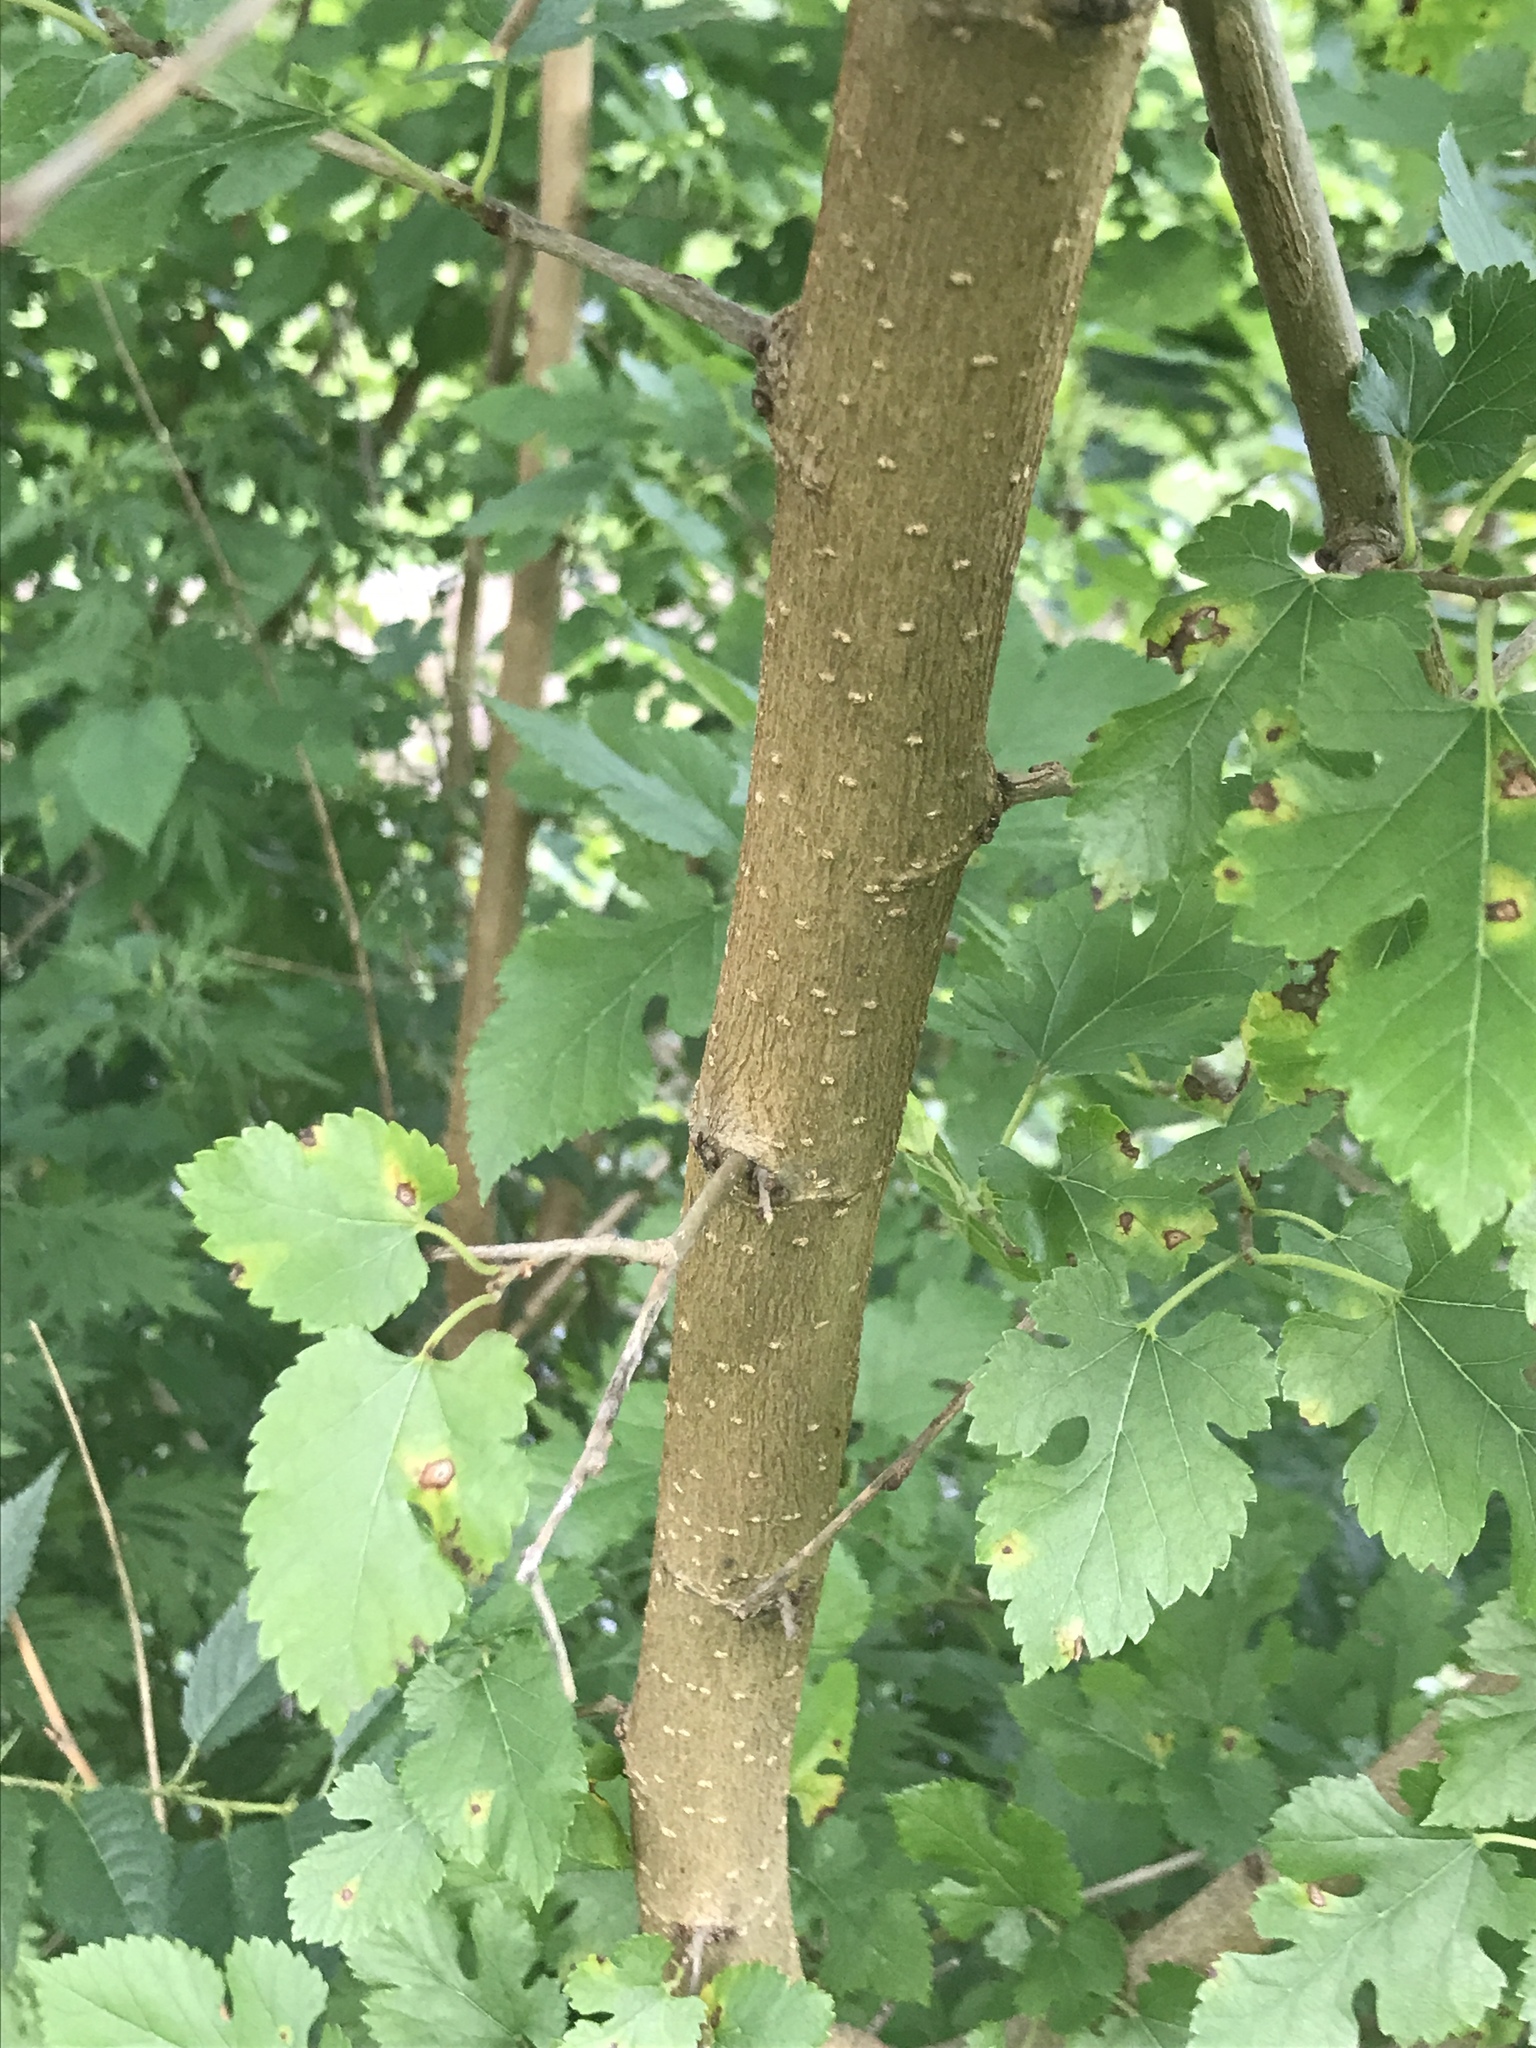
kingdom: Plantae
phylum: Tracheophyta
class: Magnoliopsida
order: Rosales
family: Moraceae
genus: Morus
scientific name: Morus alba
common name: White mulberry
